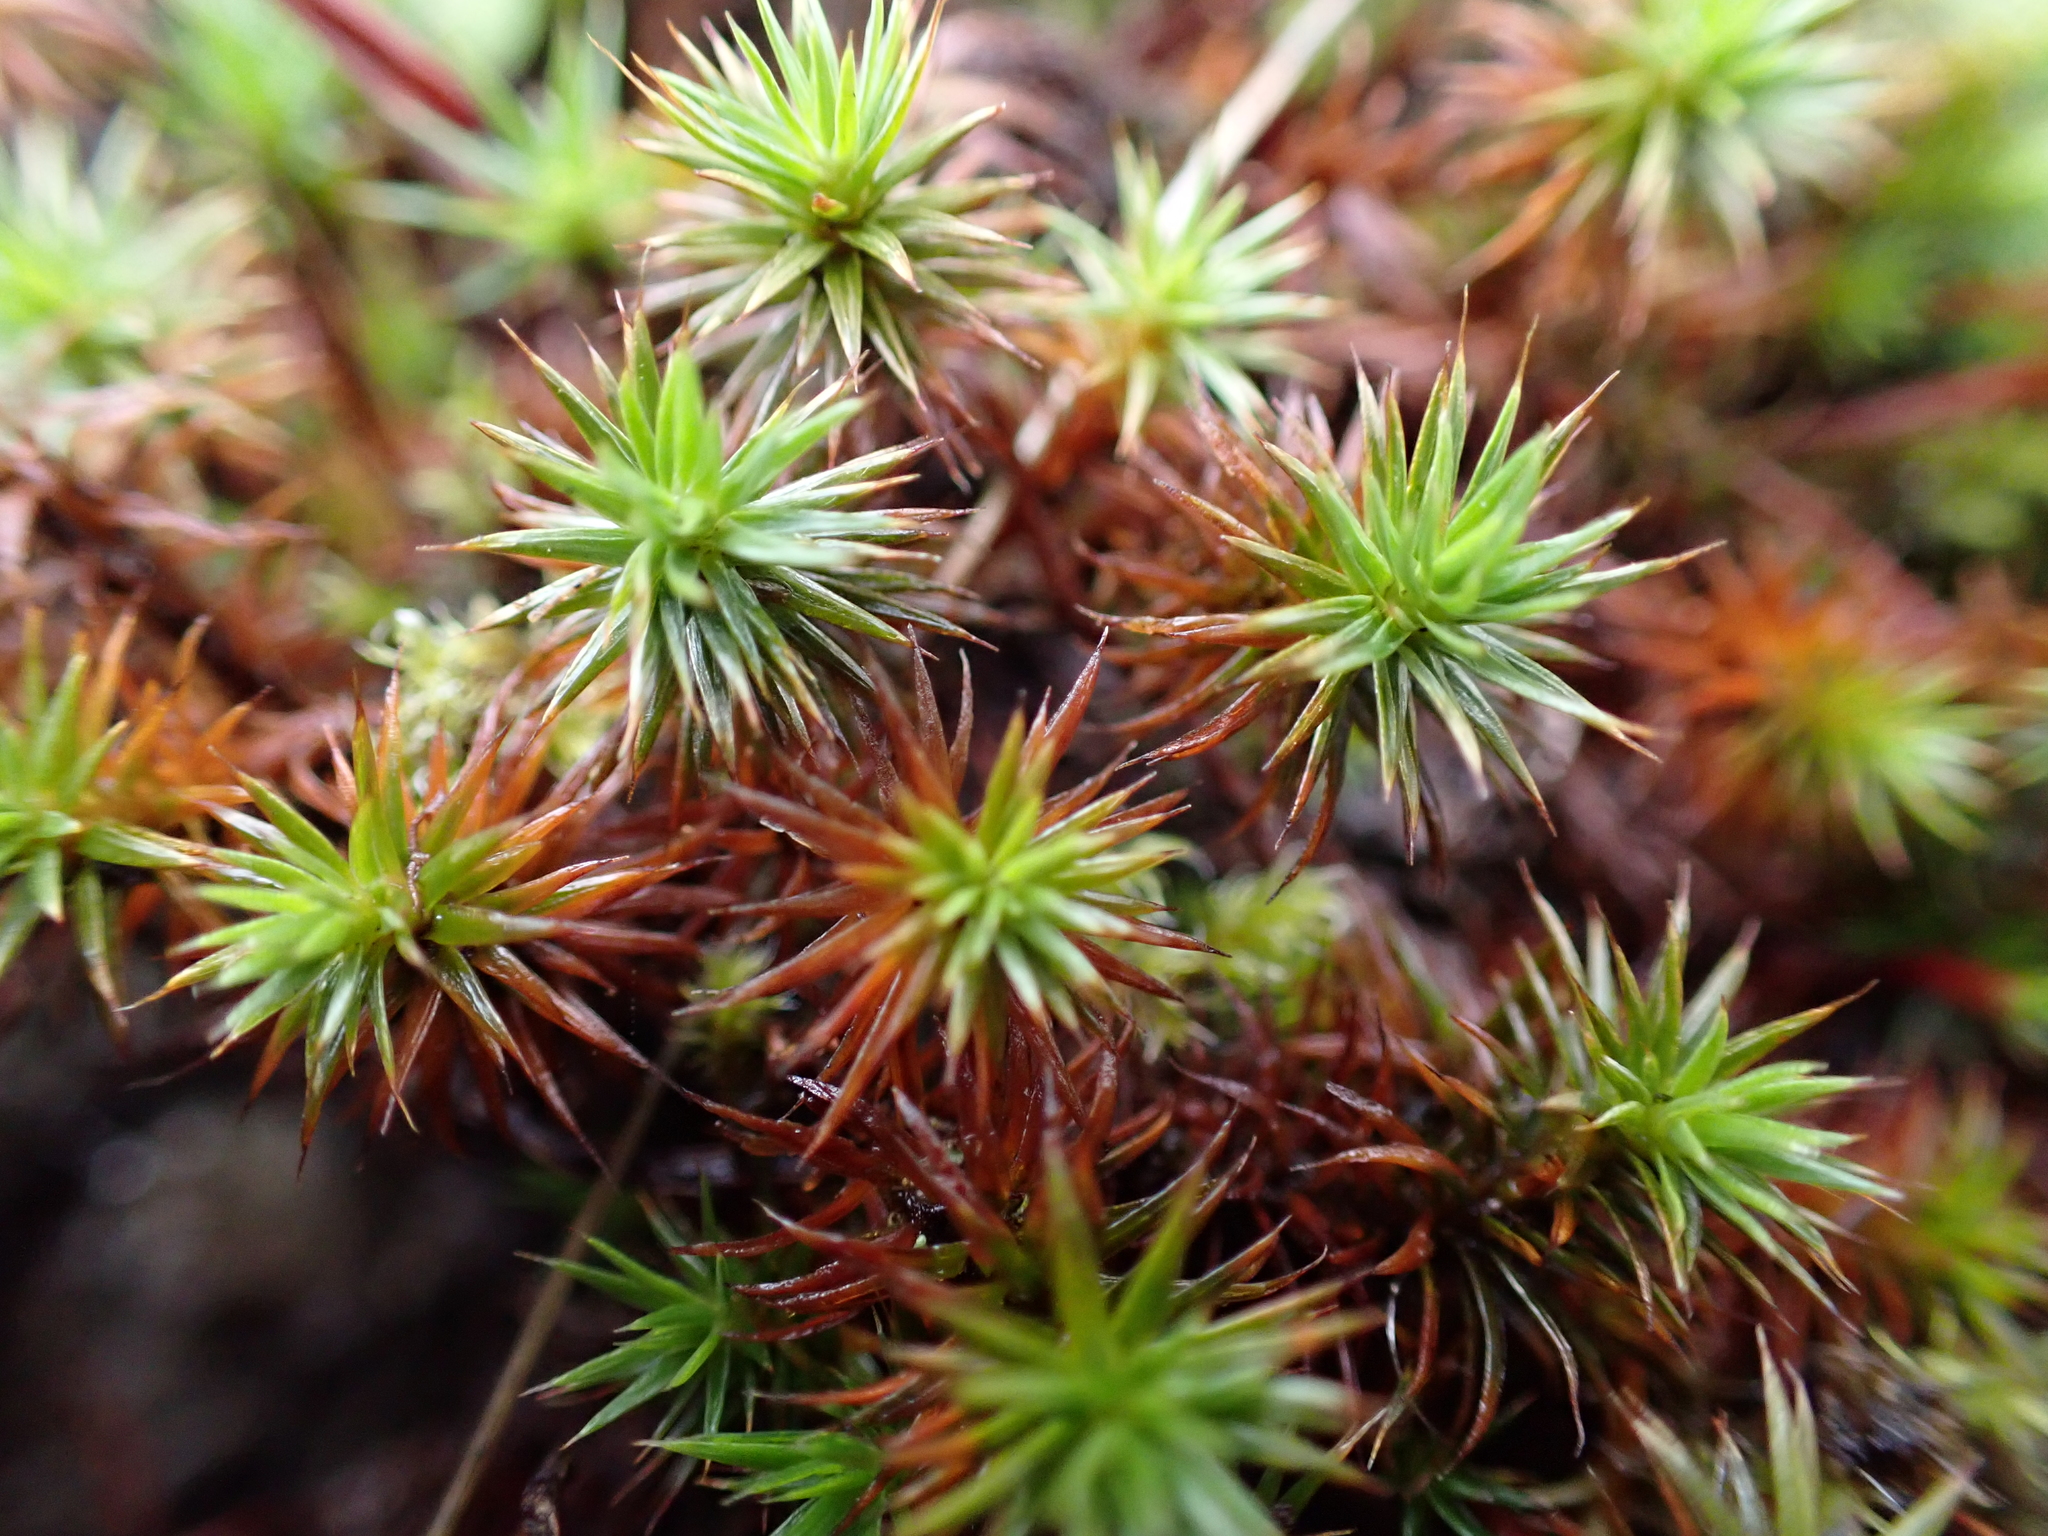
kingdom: Plantae
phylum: Bryophyta
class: Polytrichopsida
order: Polytrichales
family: Polytrichaceae
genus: Polytrichum
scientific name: Polytrichum juniperinum
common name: Juniper haircap moss
